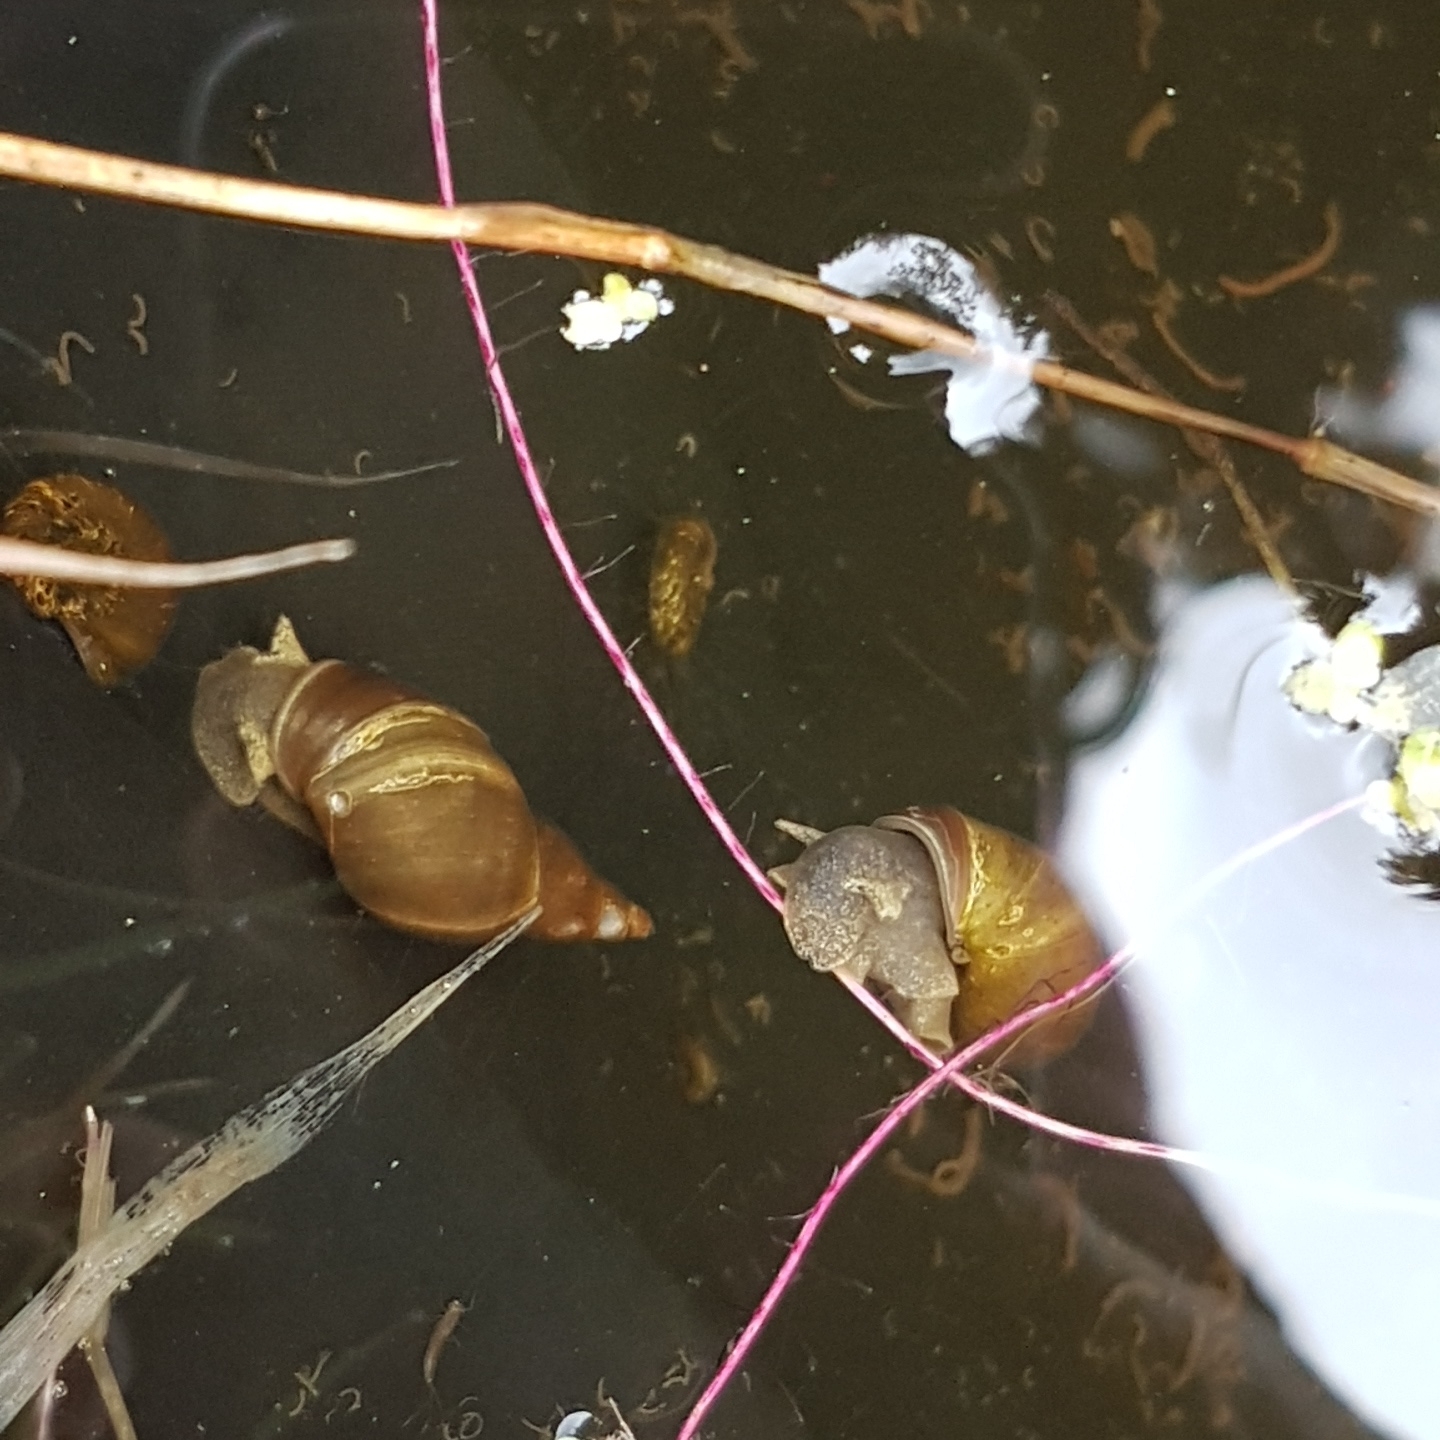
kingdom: Animalia
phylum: Mollusca
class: Gastropoda
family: Lymnaeidae
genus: Lymnaea
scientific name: Lymnaea stagnalis
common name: Great pond snail
